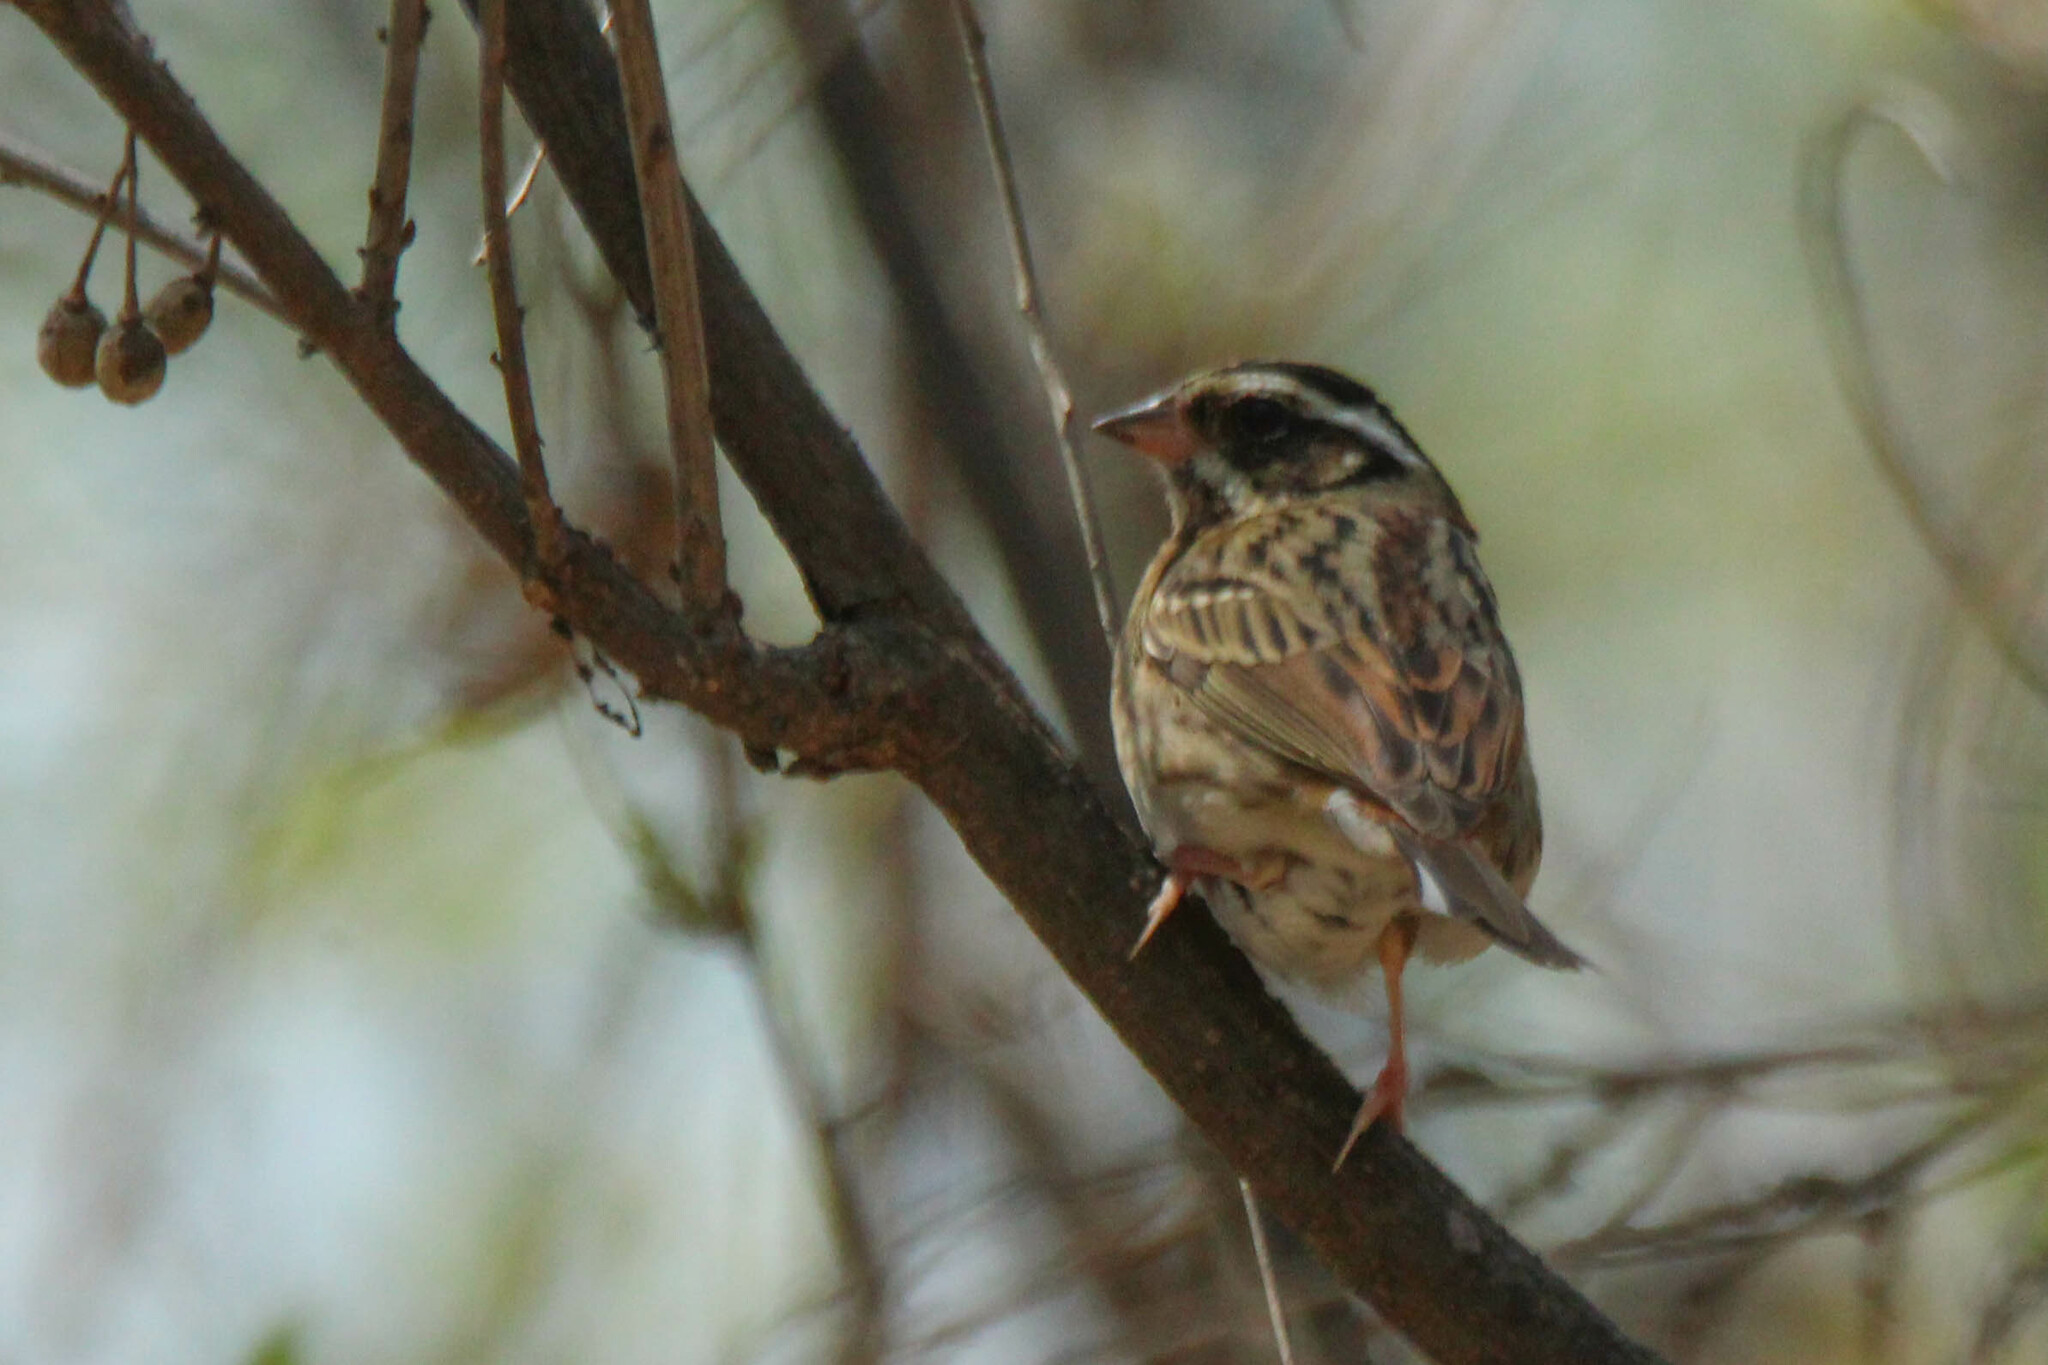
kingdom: Animalia
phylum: Chordata
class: Aves
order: Passeriformes
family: Emberizidae
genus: Emberiza
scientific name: Emberiza tristrami
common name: Tristram's bunting
